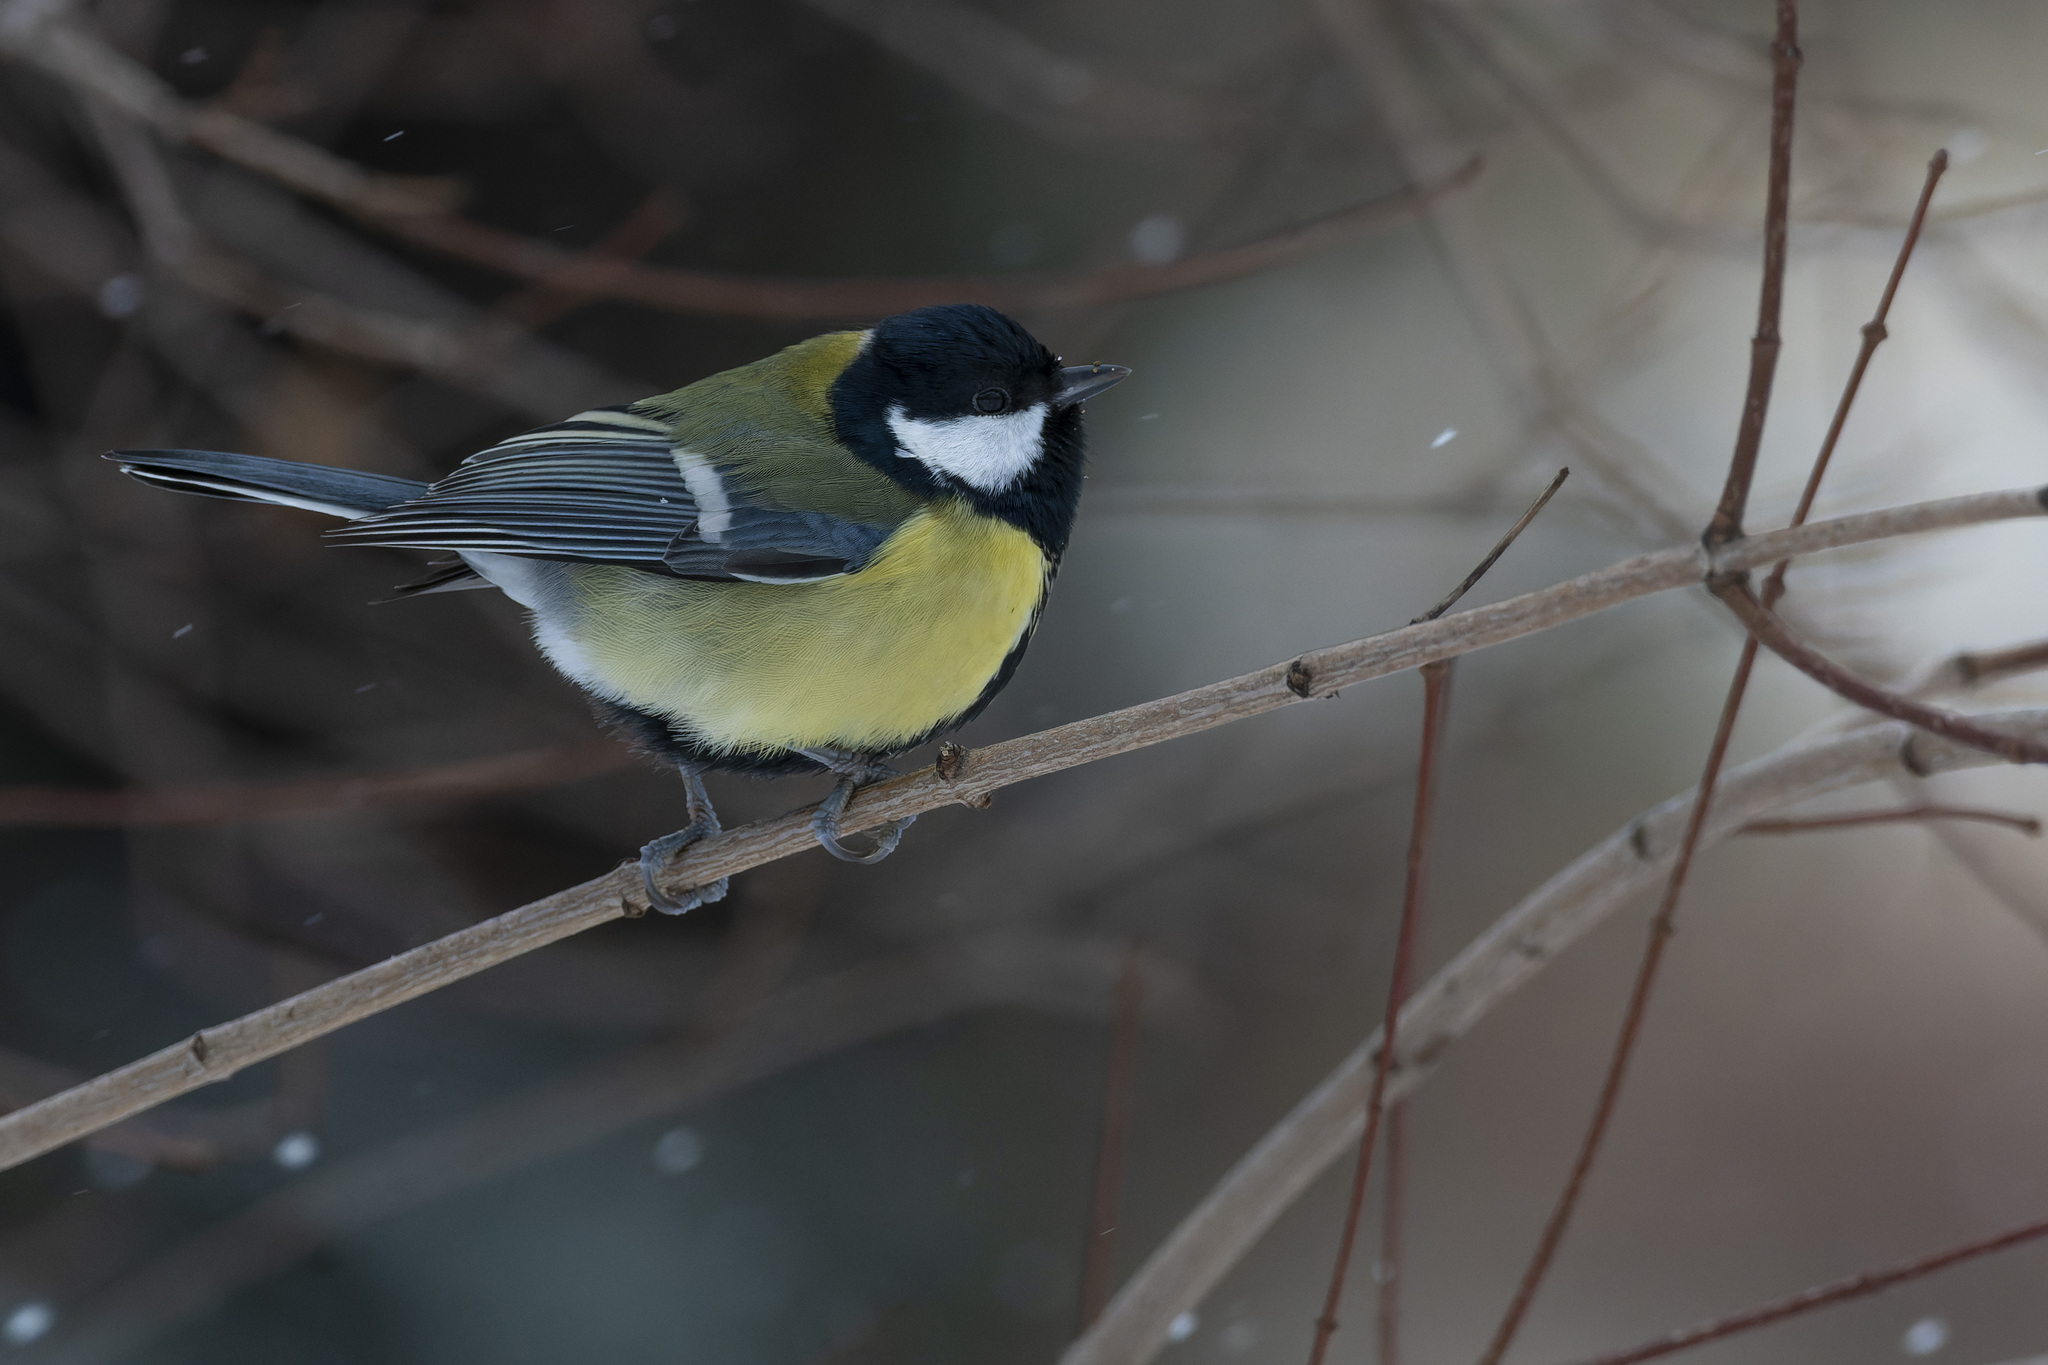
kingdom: Animalia
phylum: Chordata
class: Aves
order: Passeriformes
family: Paridae
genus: Parus
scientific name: Parus major
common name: Great tit
